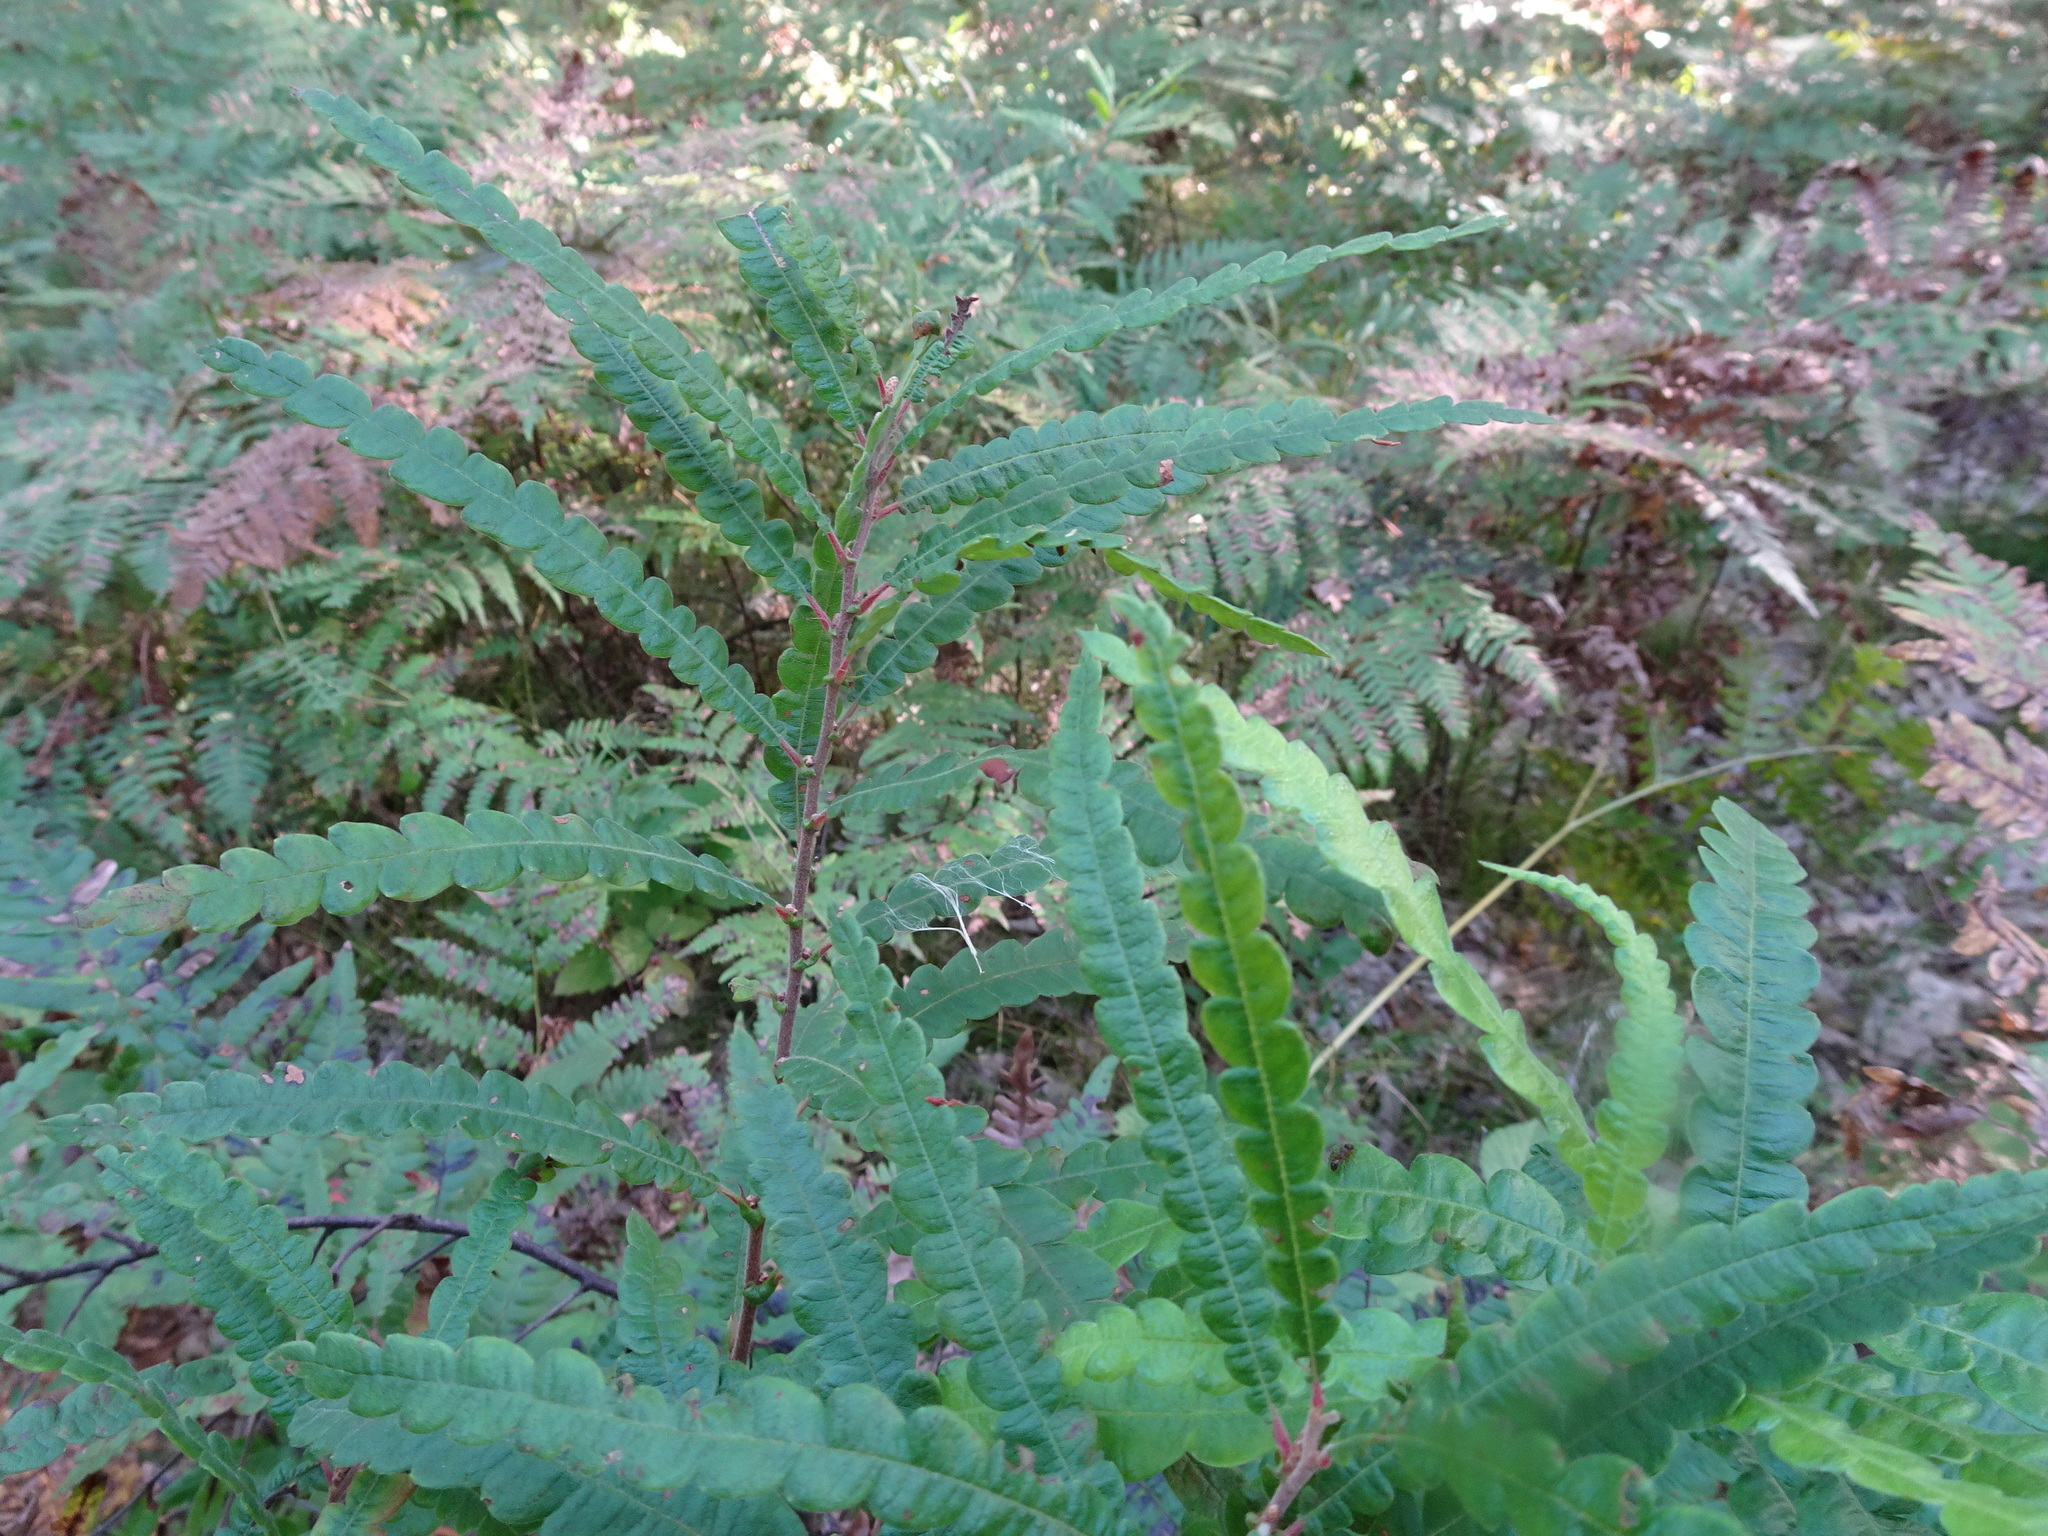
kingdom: Plantae
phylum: Tracheophyta
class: Magnoliopsida
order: Fagales
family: Myricaceae
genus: Comptonia
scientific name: Comptonia peregrina
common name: Sweet-fern
